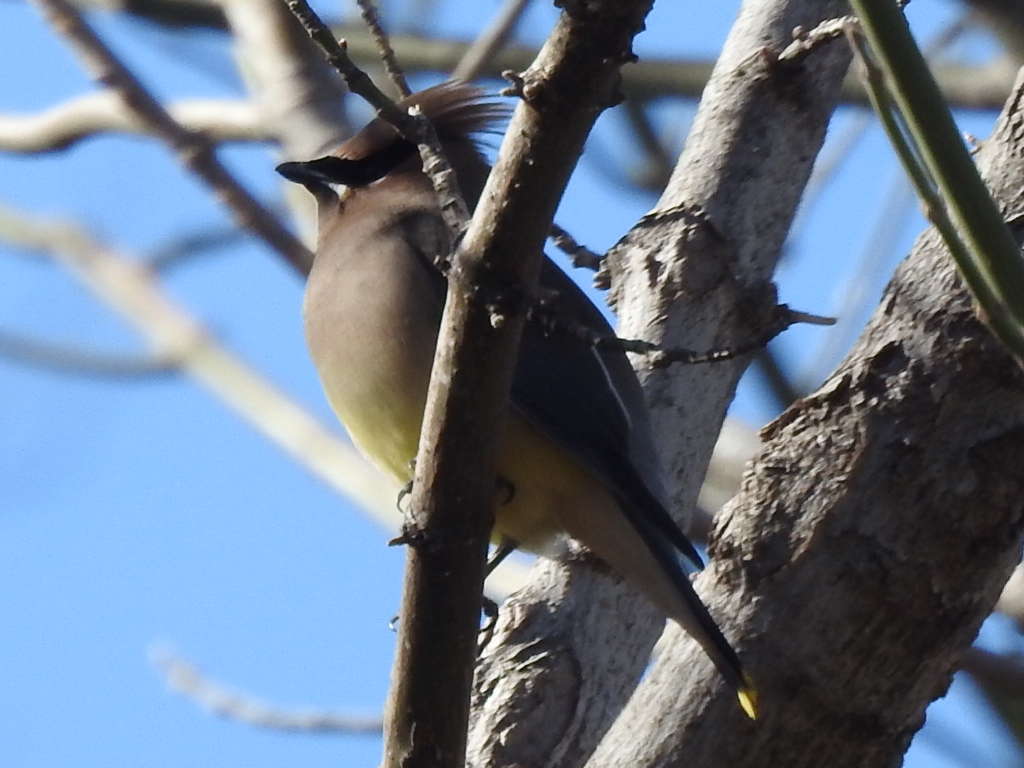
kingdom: Animalia
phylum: Chordata
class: Aves
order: Passeriformes
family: Bombycillidae
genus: Bombycilla
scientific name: Bombycilla cedrorum
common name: Cedar waxwing
